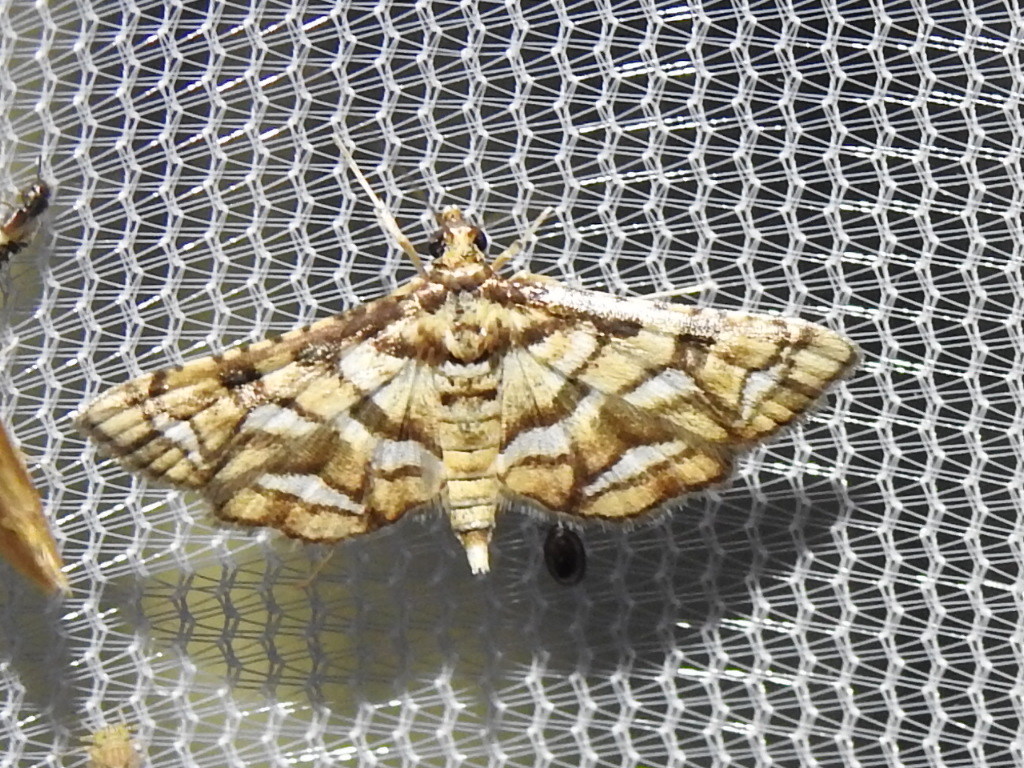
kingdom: Animalia
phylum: Arthropoda
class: Insecta
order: Lepidoptera
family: Crambidae
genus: Hileithia
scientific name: Hileithia magualis
